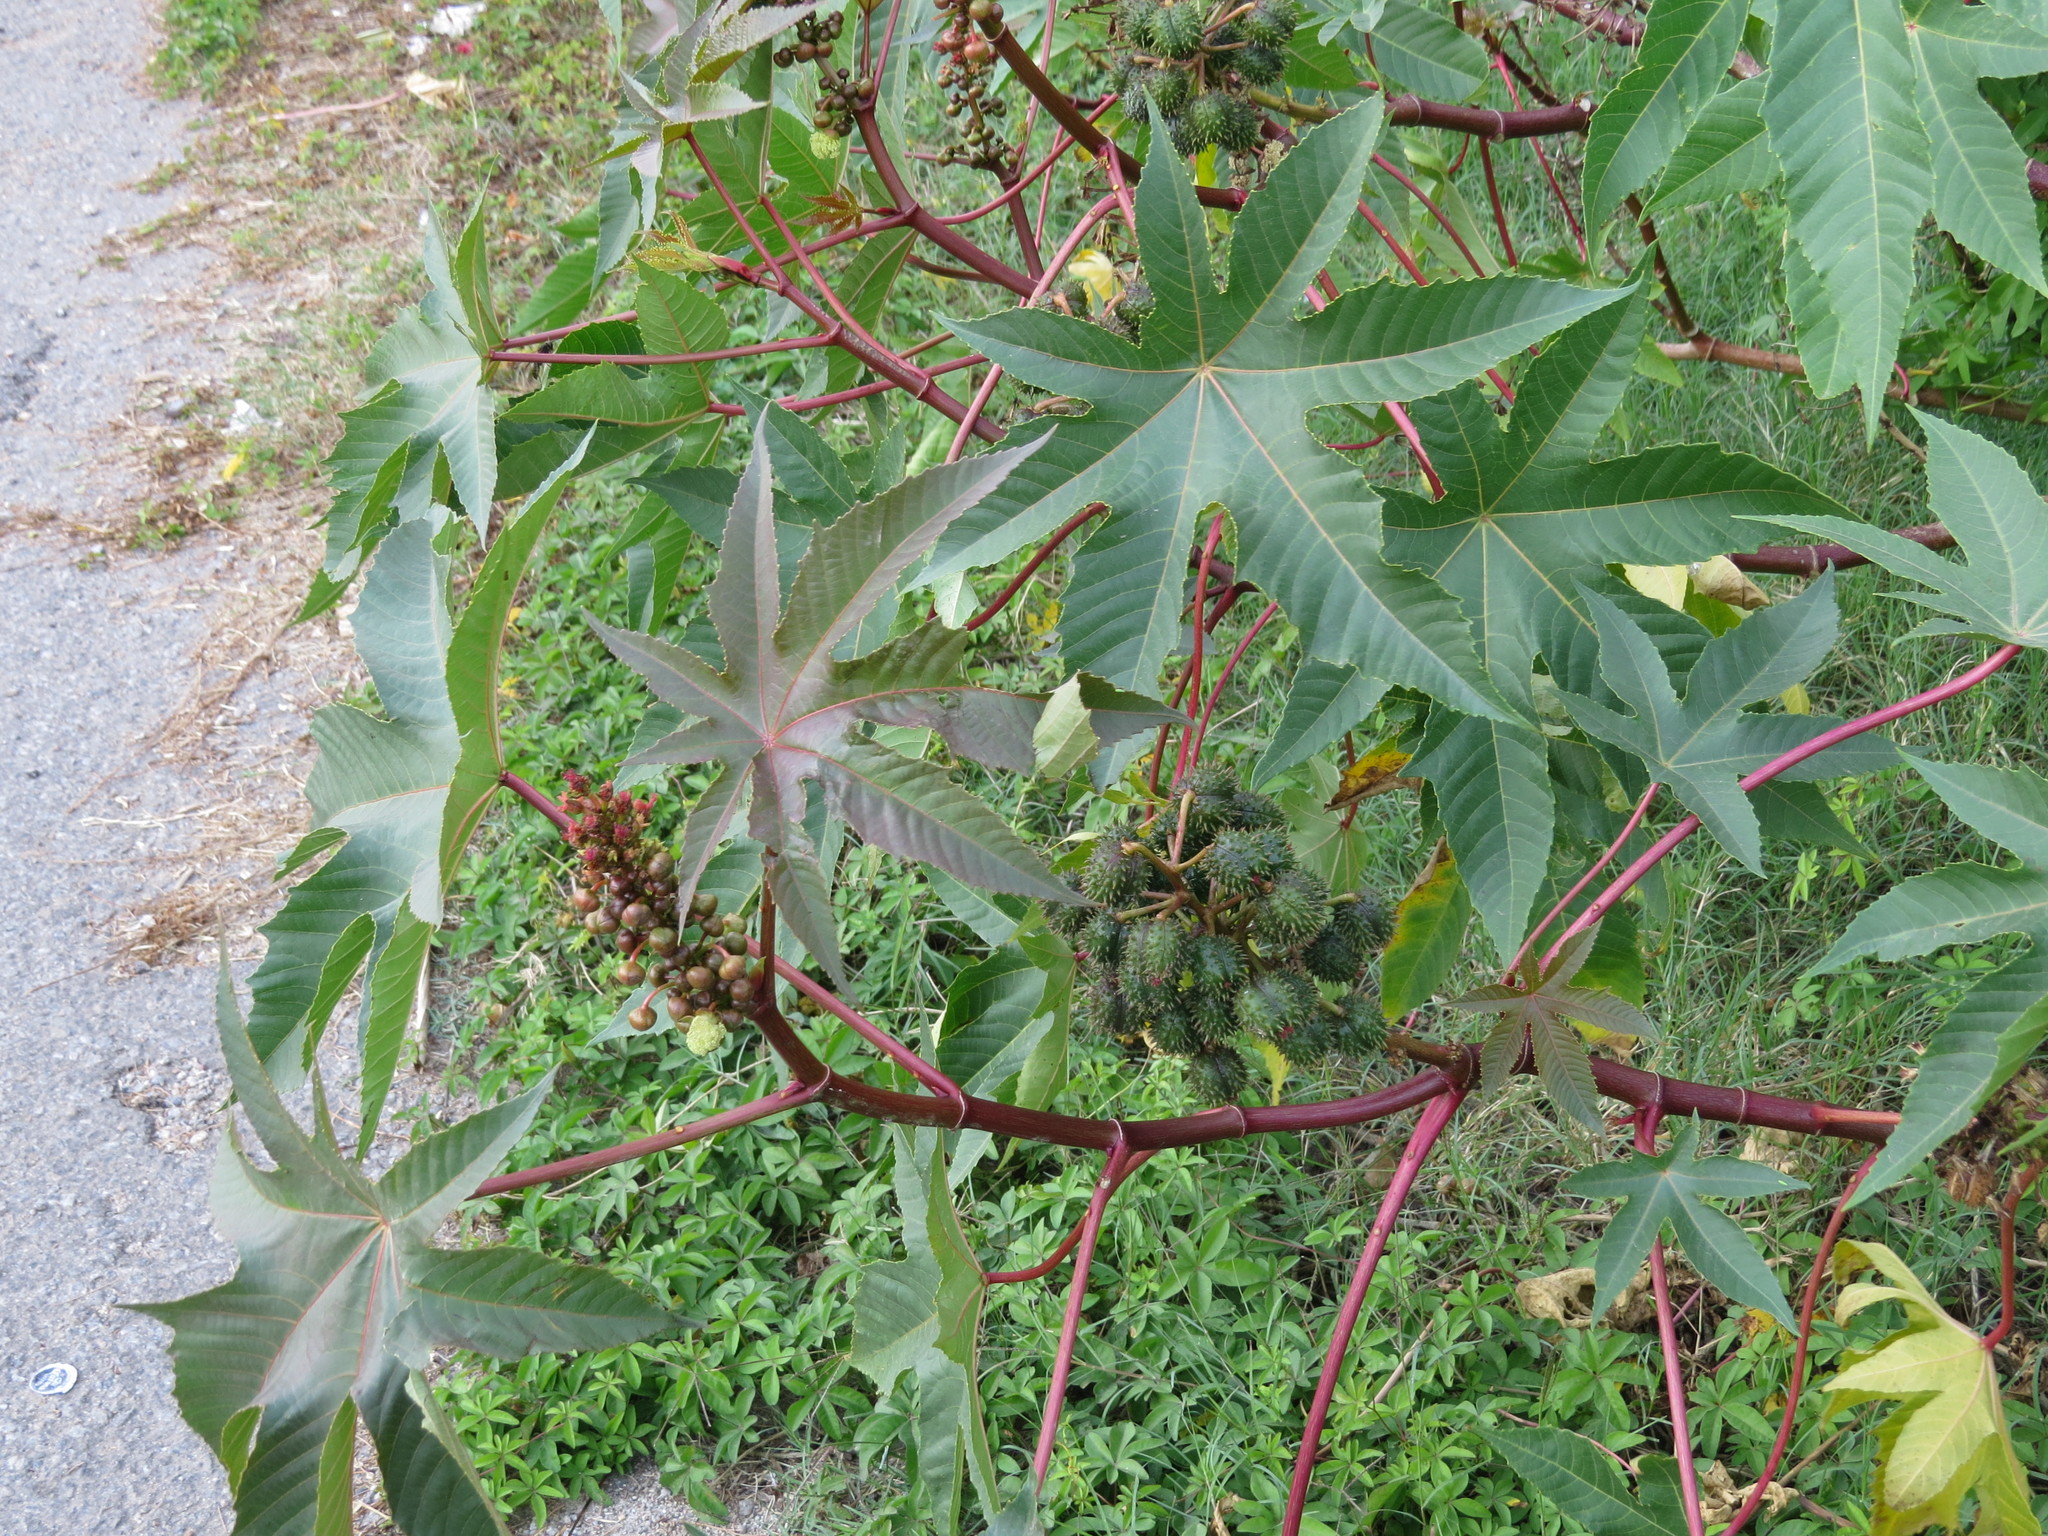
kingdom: Plantae
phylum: Tracheophyta
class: Magnoliopsida
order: Malpighiales
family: Euphorbiaceae
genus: Ricinus
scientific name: Ricinus communis
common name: Castor-oil-plant
